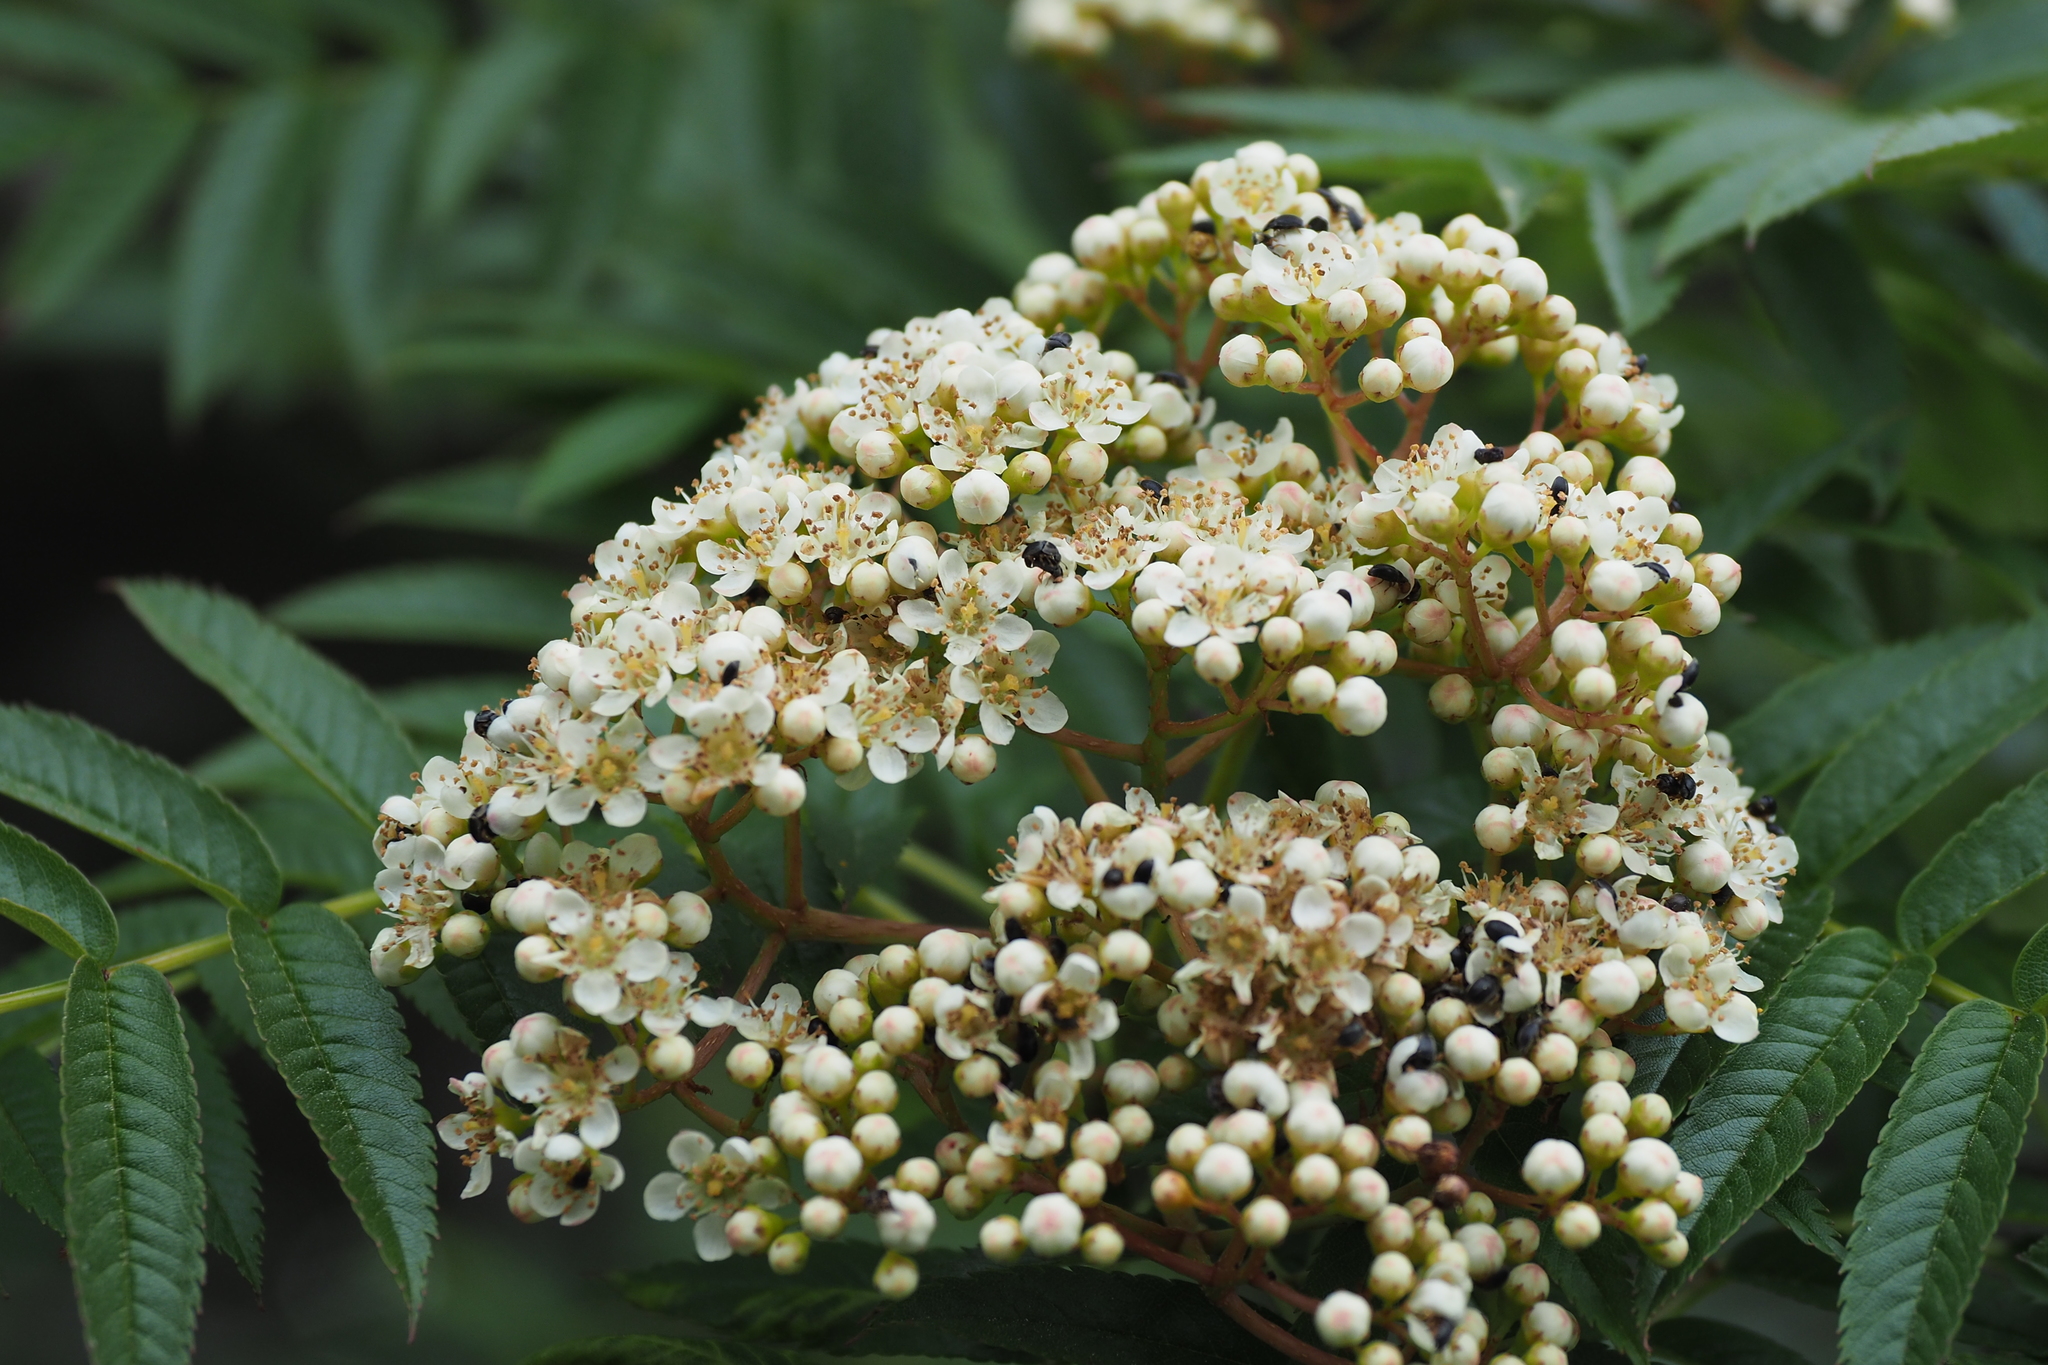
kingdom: Plantae
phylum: Tracheophyta
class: Magnoliopsida
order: Rosales
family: Rosaceae
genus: Sorbus
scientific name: Sorbus randaiensis
